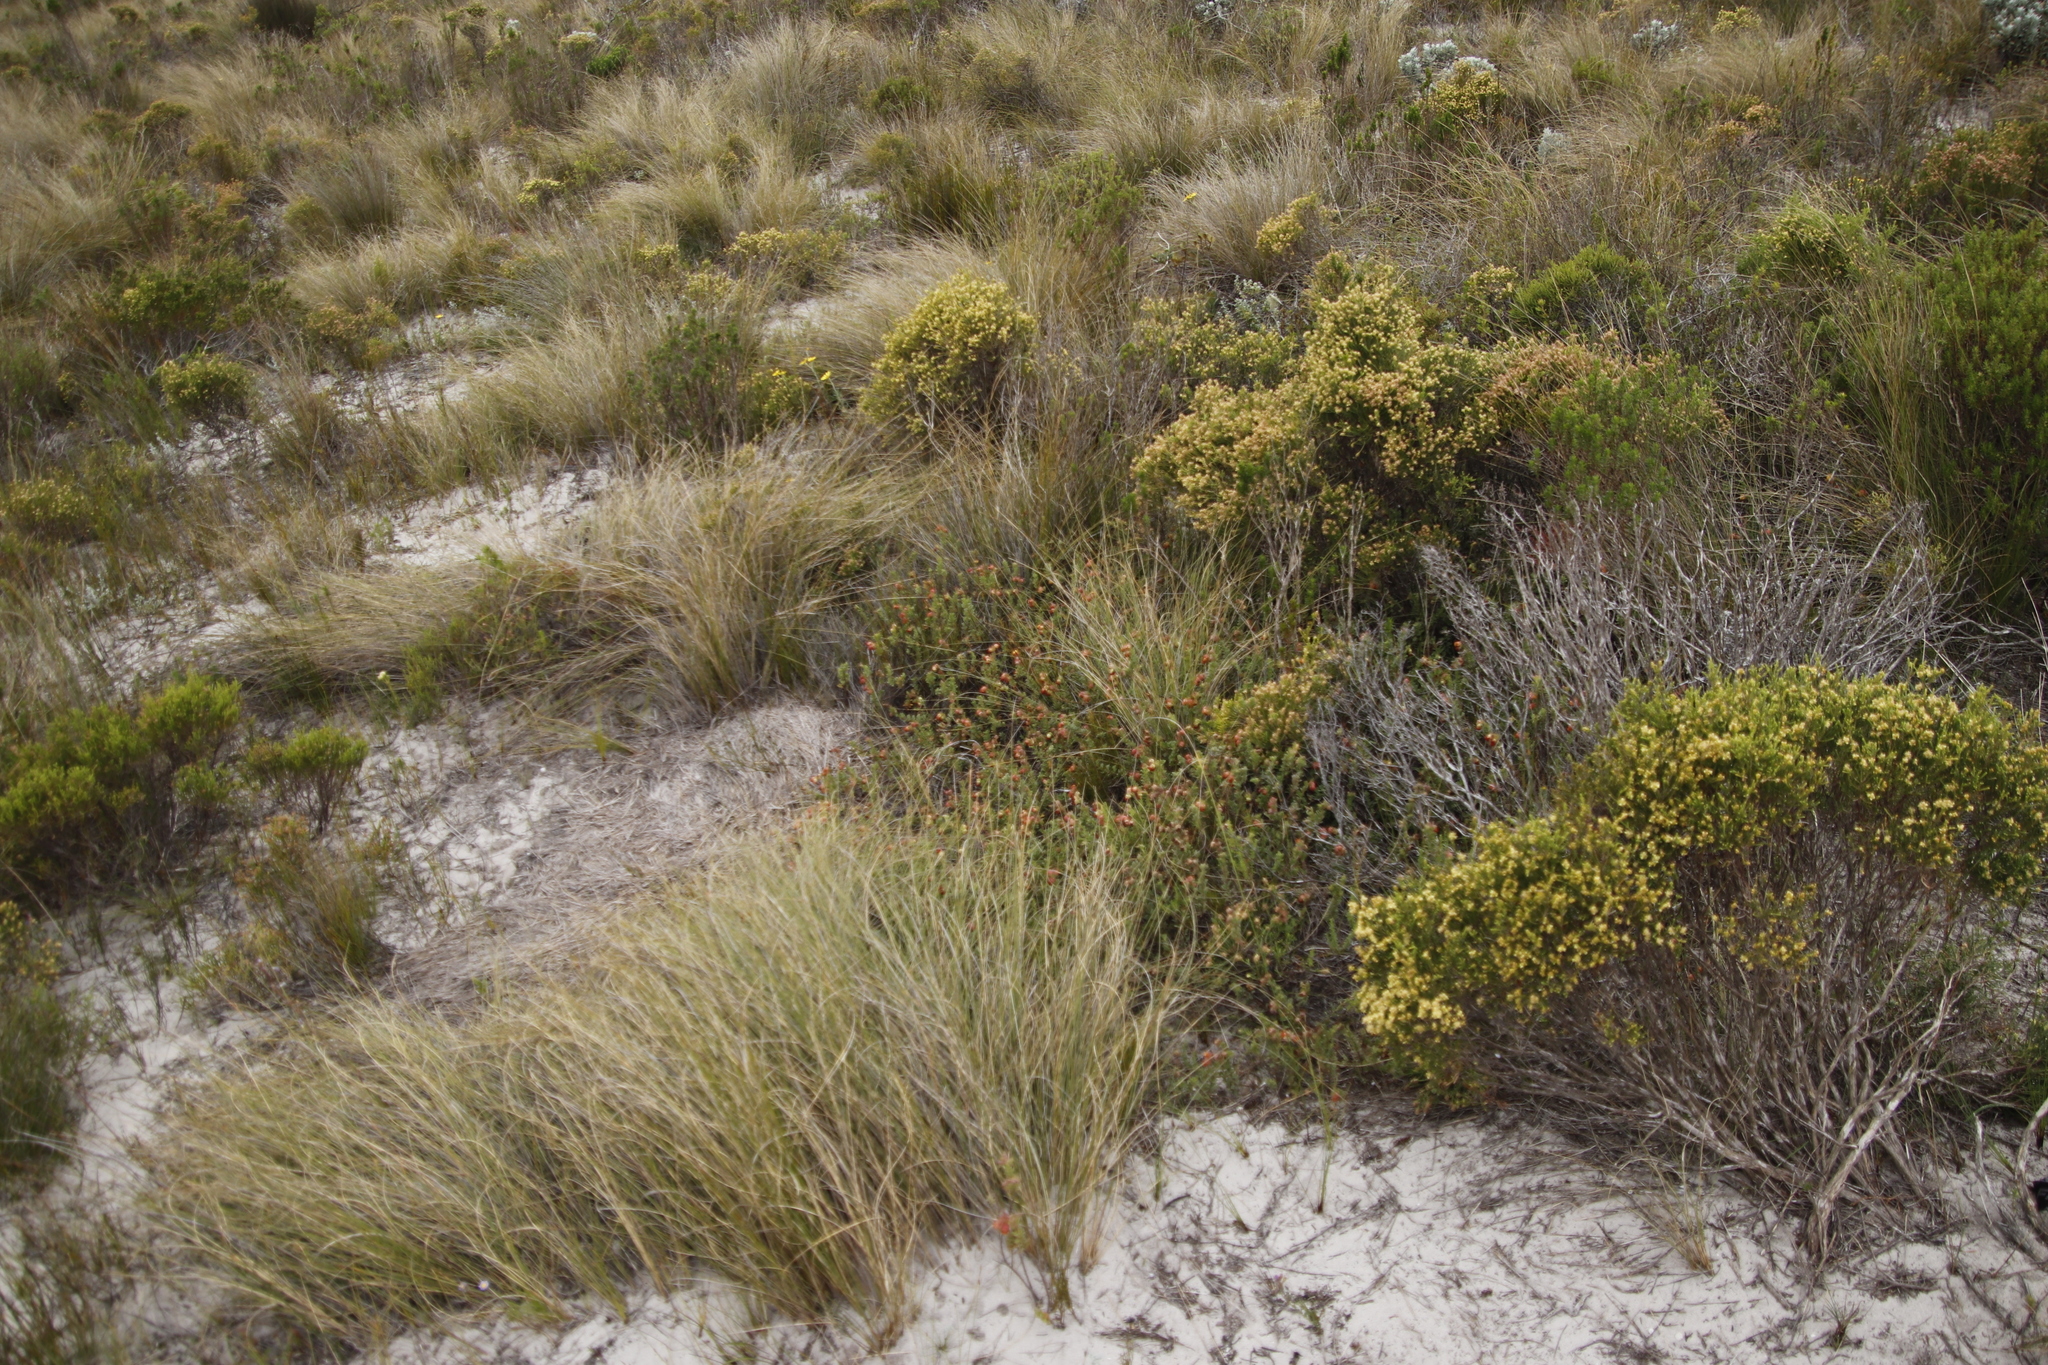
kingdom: Plantae
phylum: Tracheophyta
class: Magnoliopsida
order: Malvales
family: Malvaceae
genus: Hermannia
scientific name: Hermannia concinnifolia
